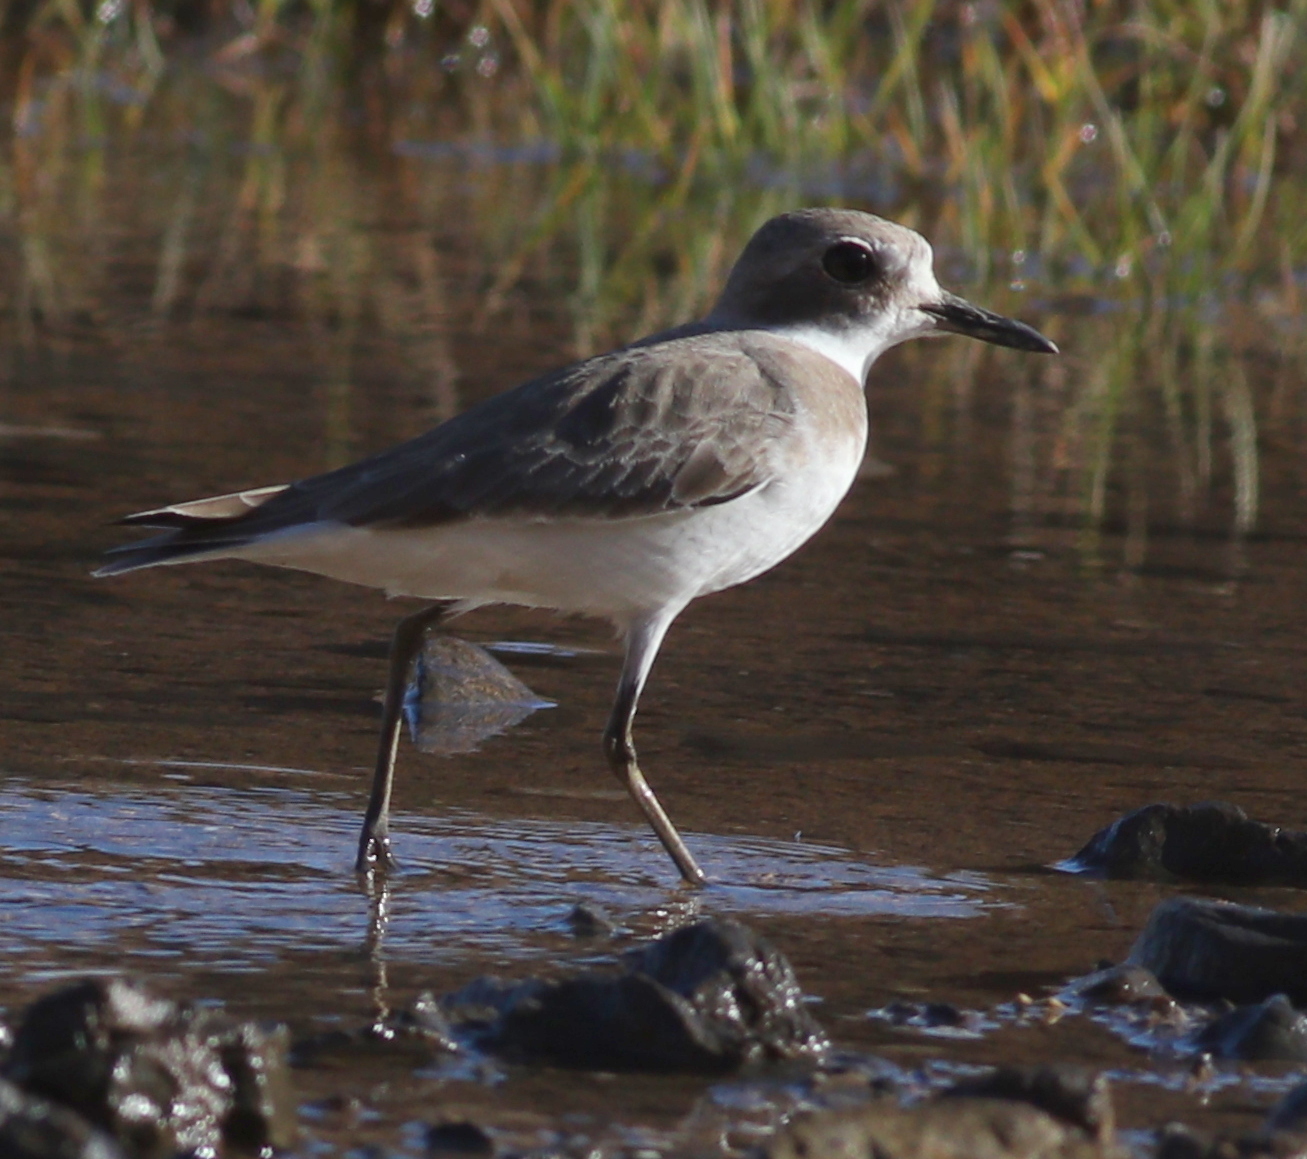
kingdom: Animalia
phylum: Chordata
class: Aves
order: Charadriiformes
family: Charadriidae
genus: Charadrius
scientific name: Charadrius leschenaultii
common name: Greater sand plover
